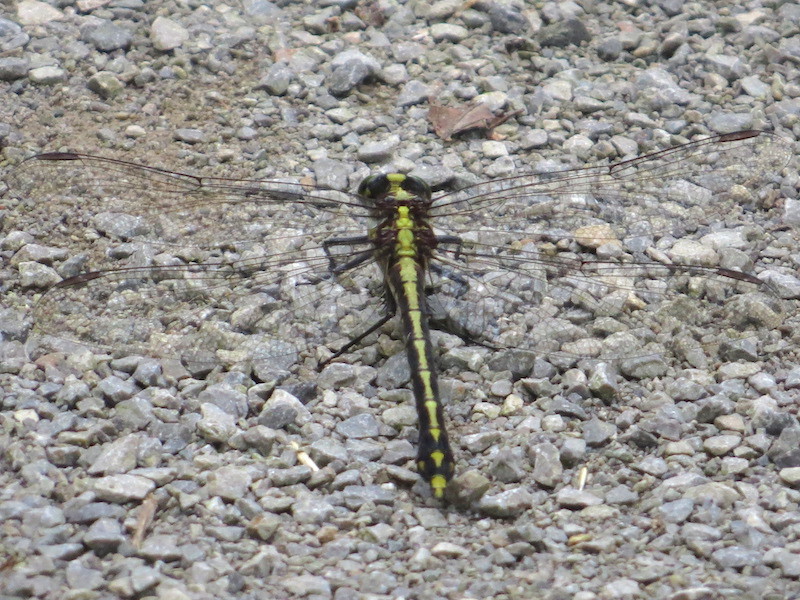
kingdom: Animalia
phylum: Arthropoda
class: Insecta
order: Odonata
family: Gomphidae
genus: Dromogomphus
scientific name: Dromogomphus spinosus
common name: Black-shouldered spinyleg
